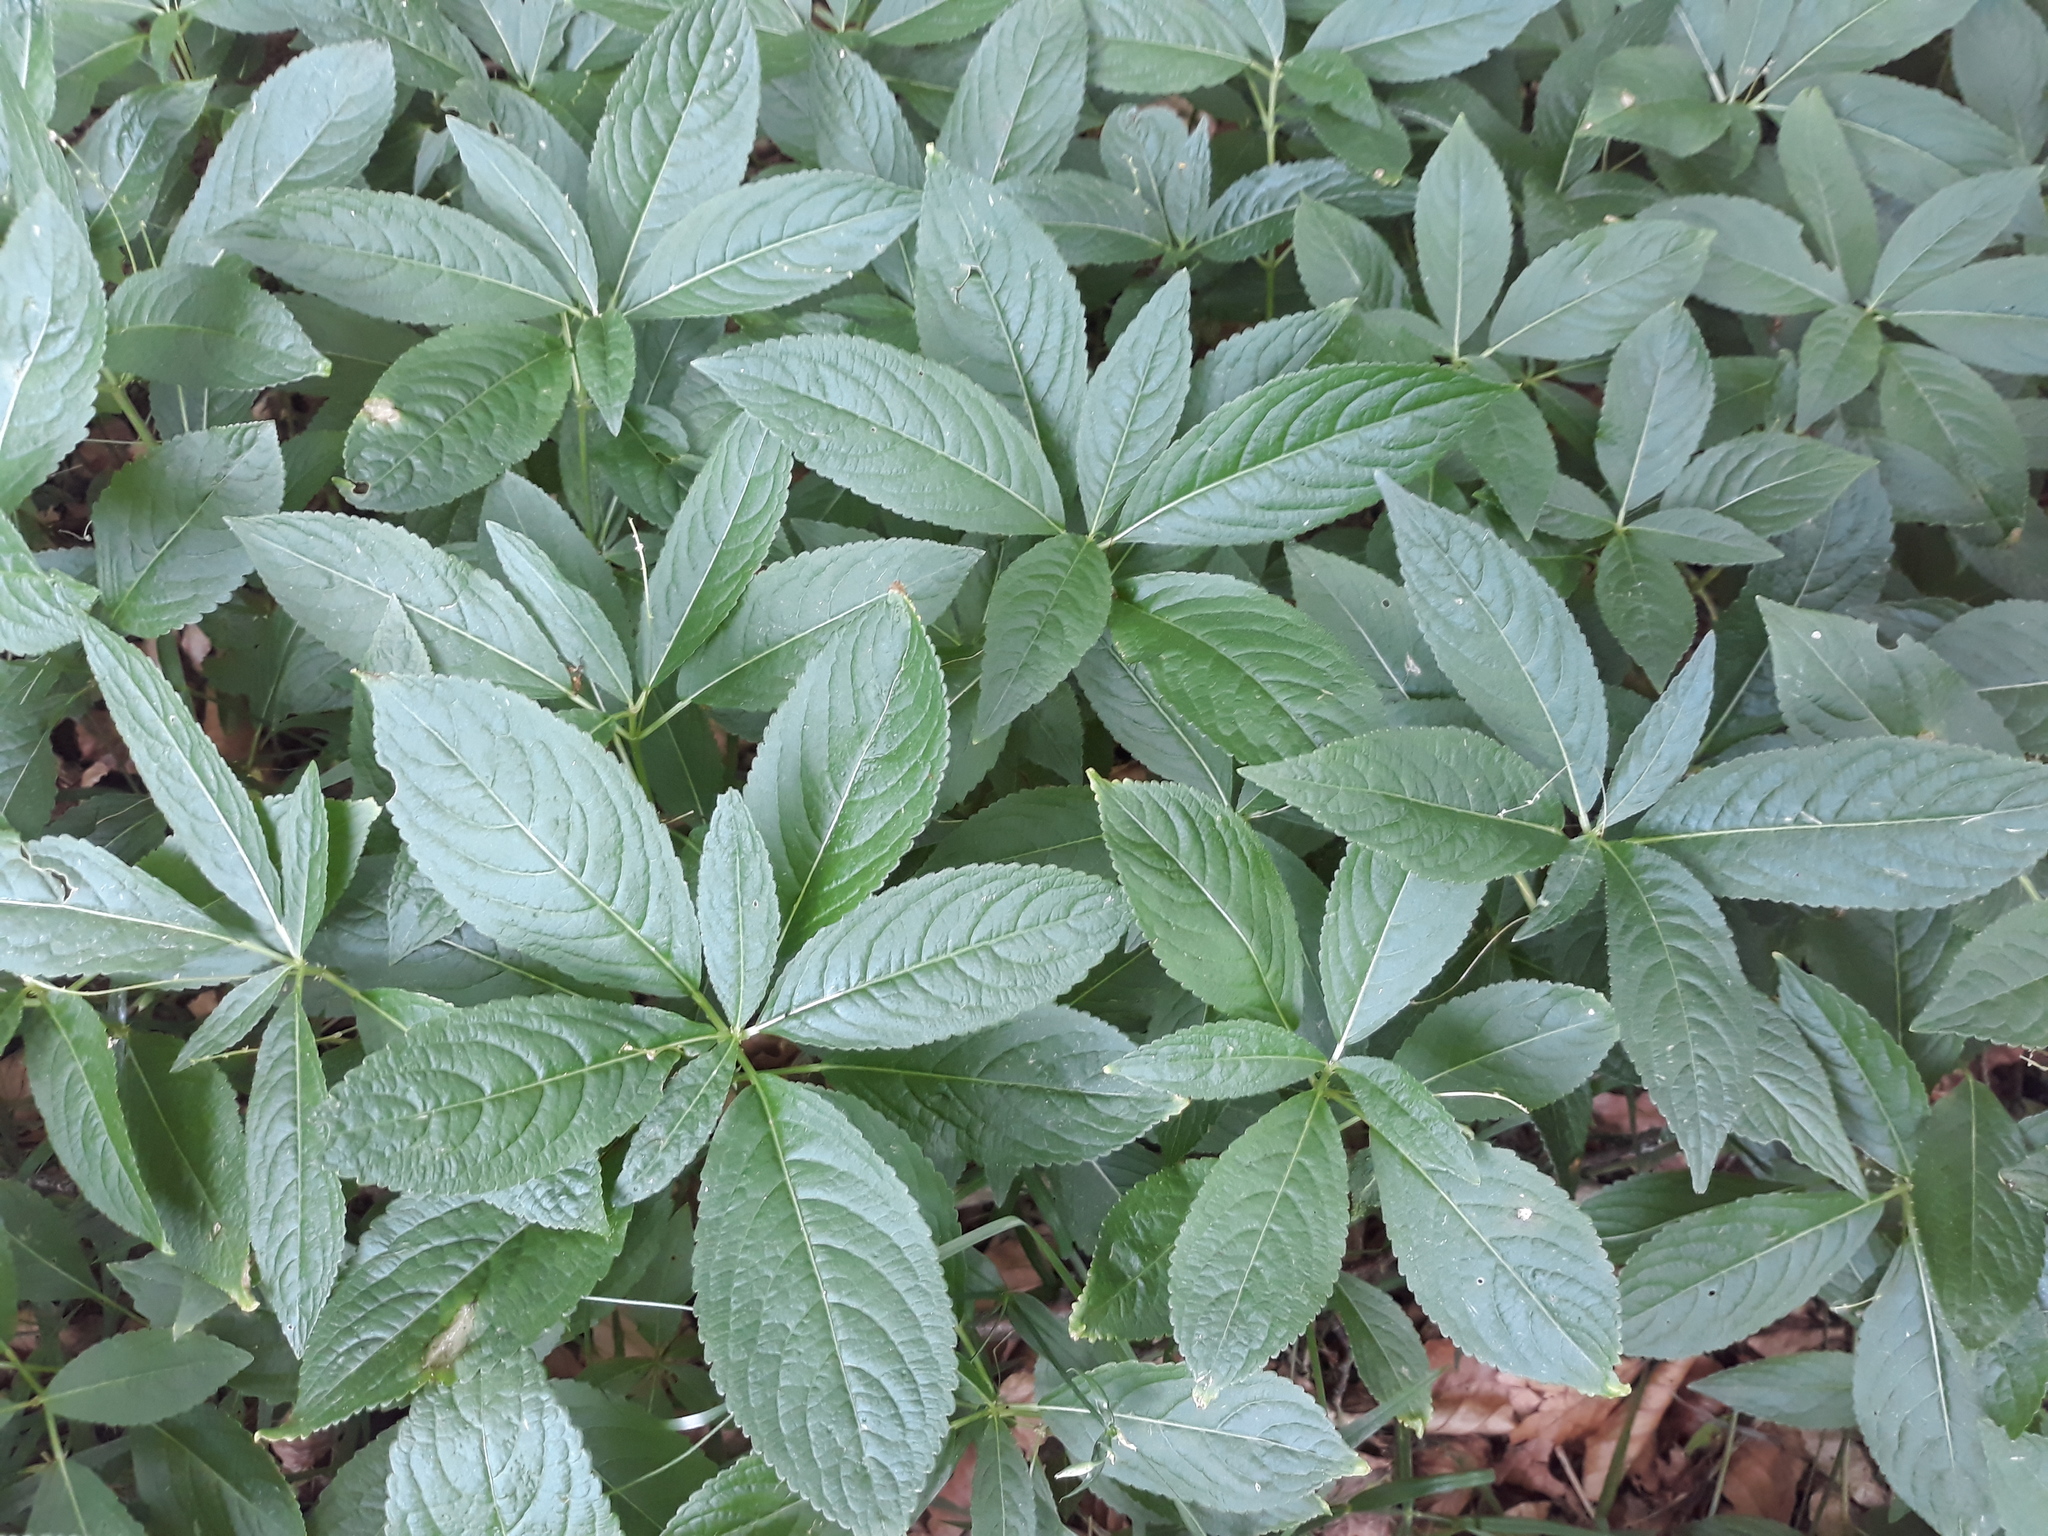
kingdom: Plantae
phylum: Tracheophyta
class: Magnoliopsida
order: Malpighiales
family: Euphorbiaceae
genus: Mercurialis
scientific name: Mercurialis perennis
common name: Dog mercury
